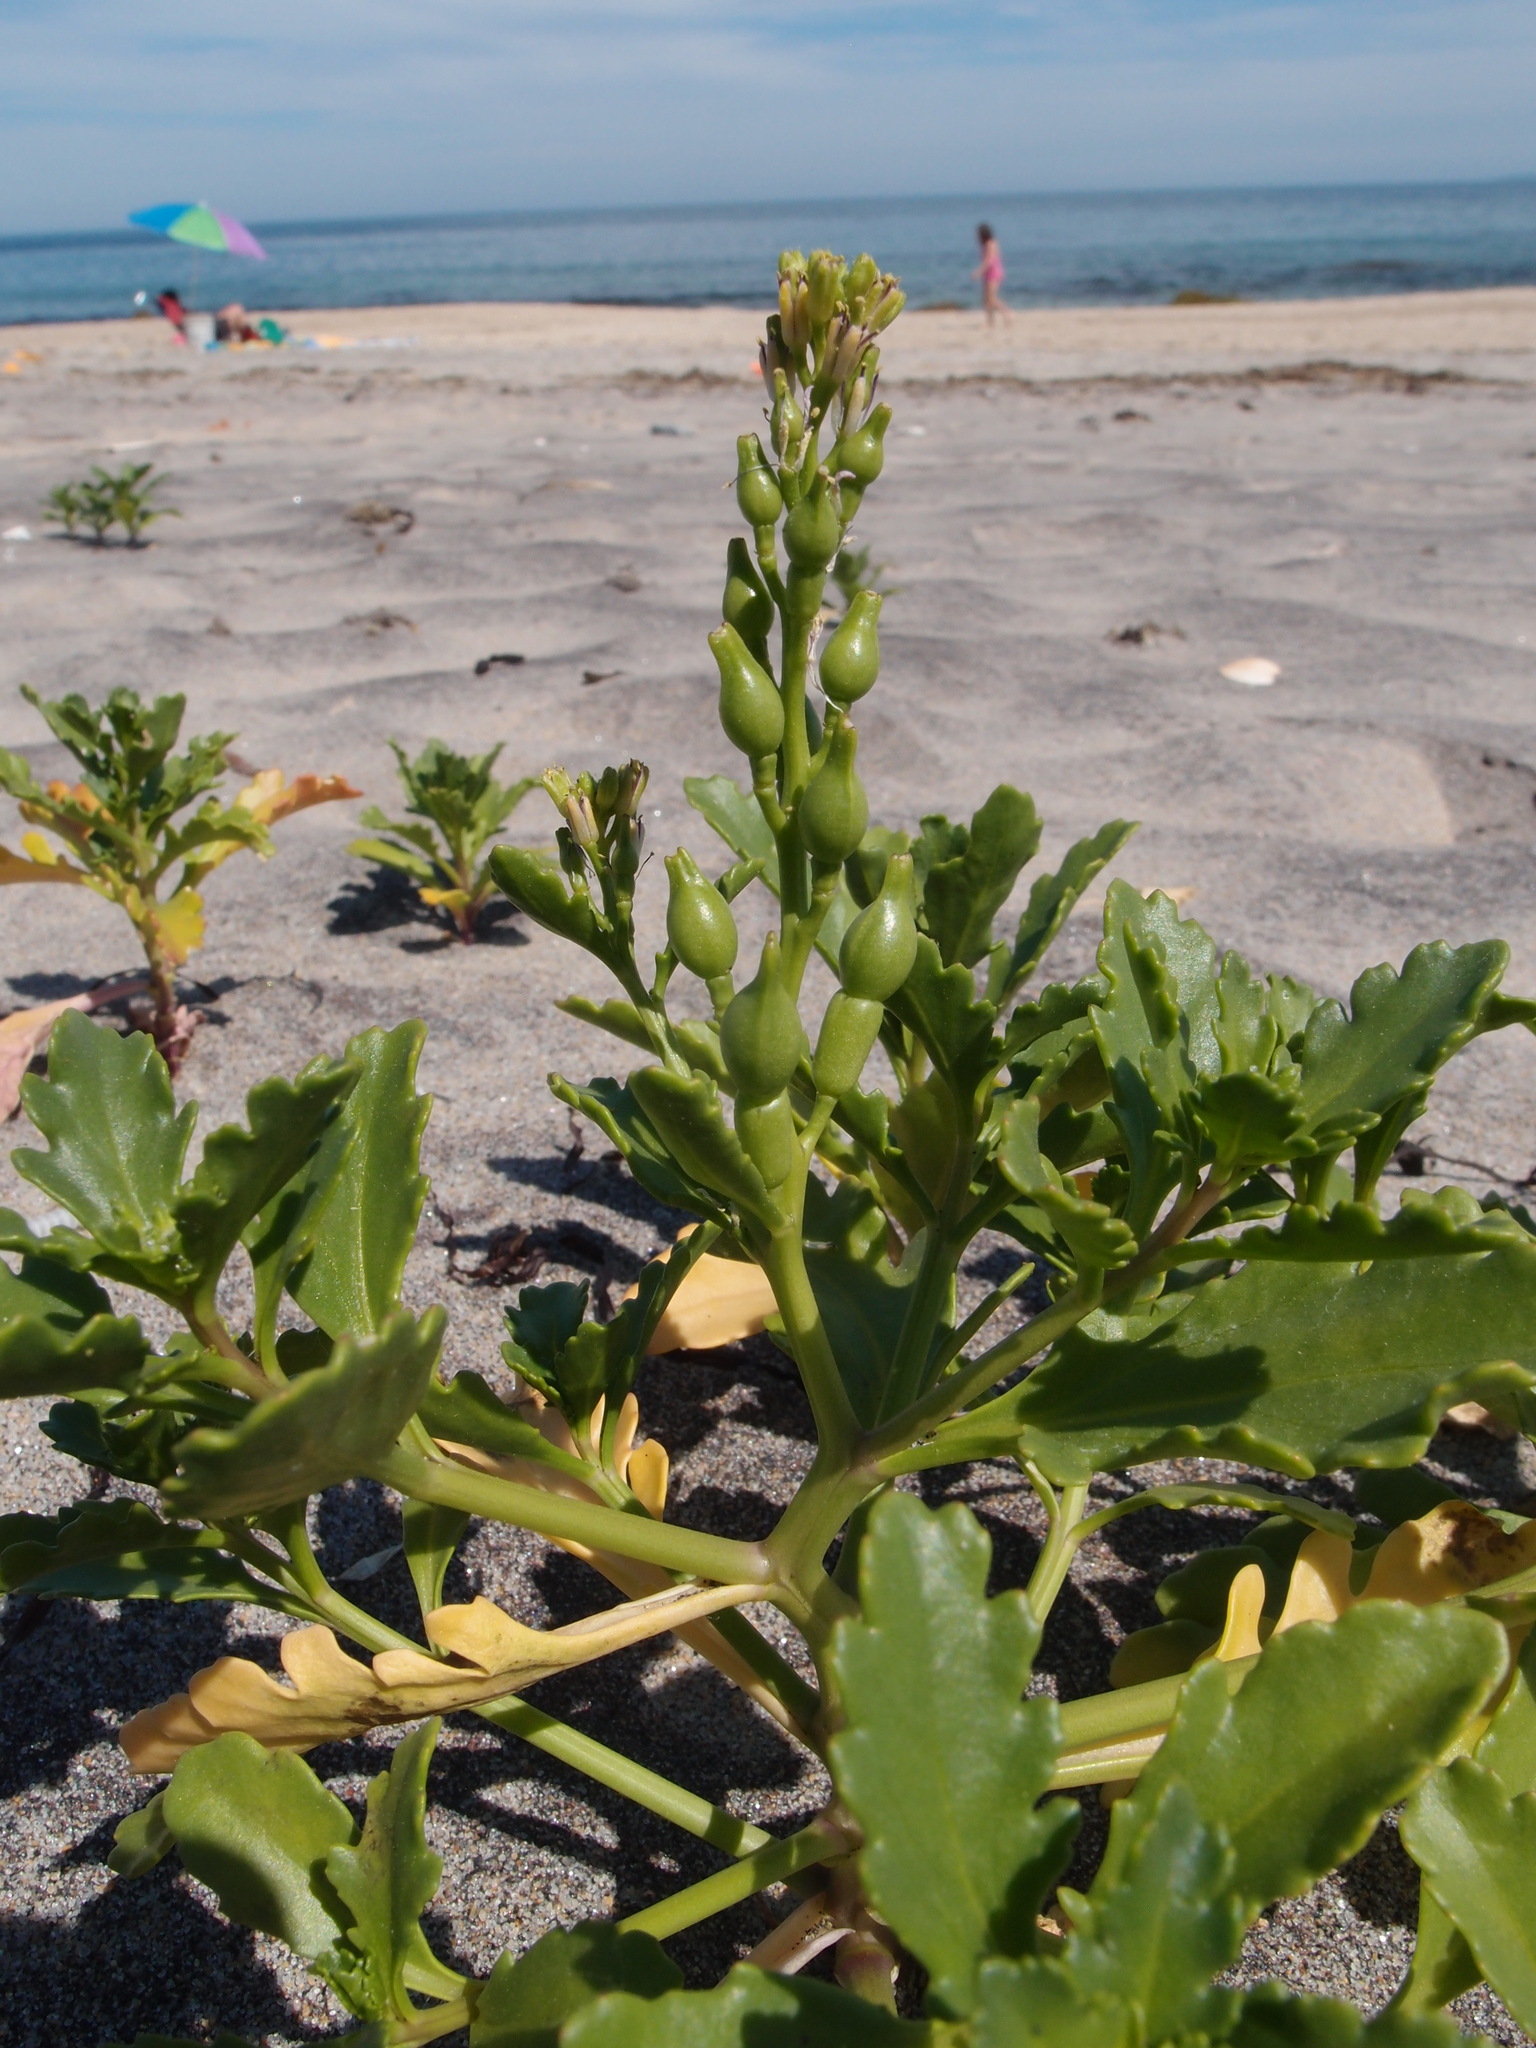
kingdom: Plantae
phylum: Tracheophyta
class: Magnoliopsida
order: Brassicales
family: Brassicaceae
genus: Cakile
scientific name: Cakile edentula
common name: American sea rocket
